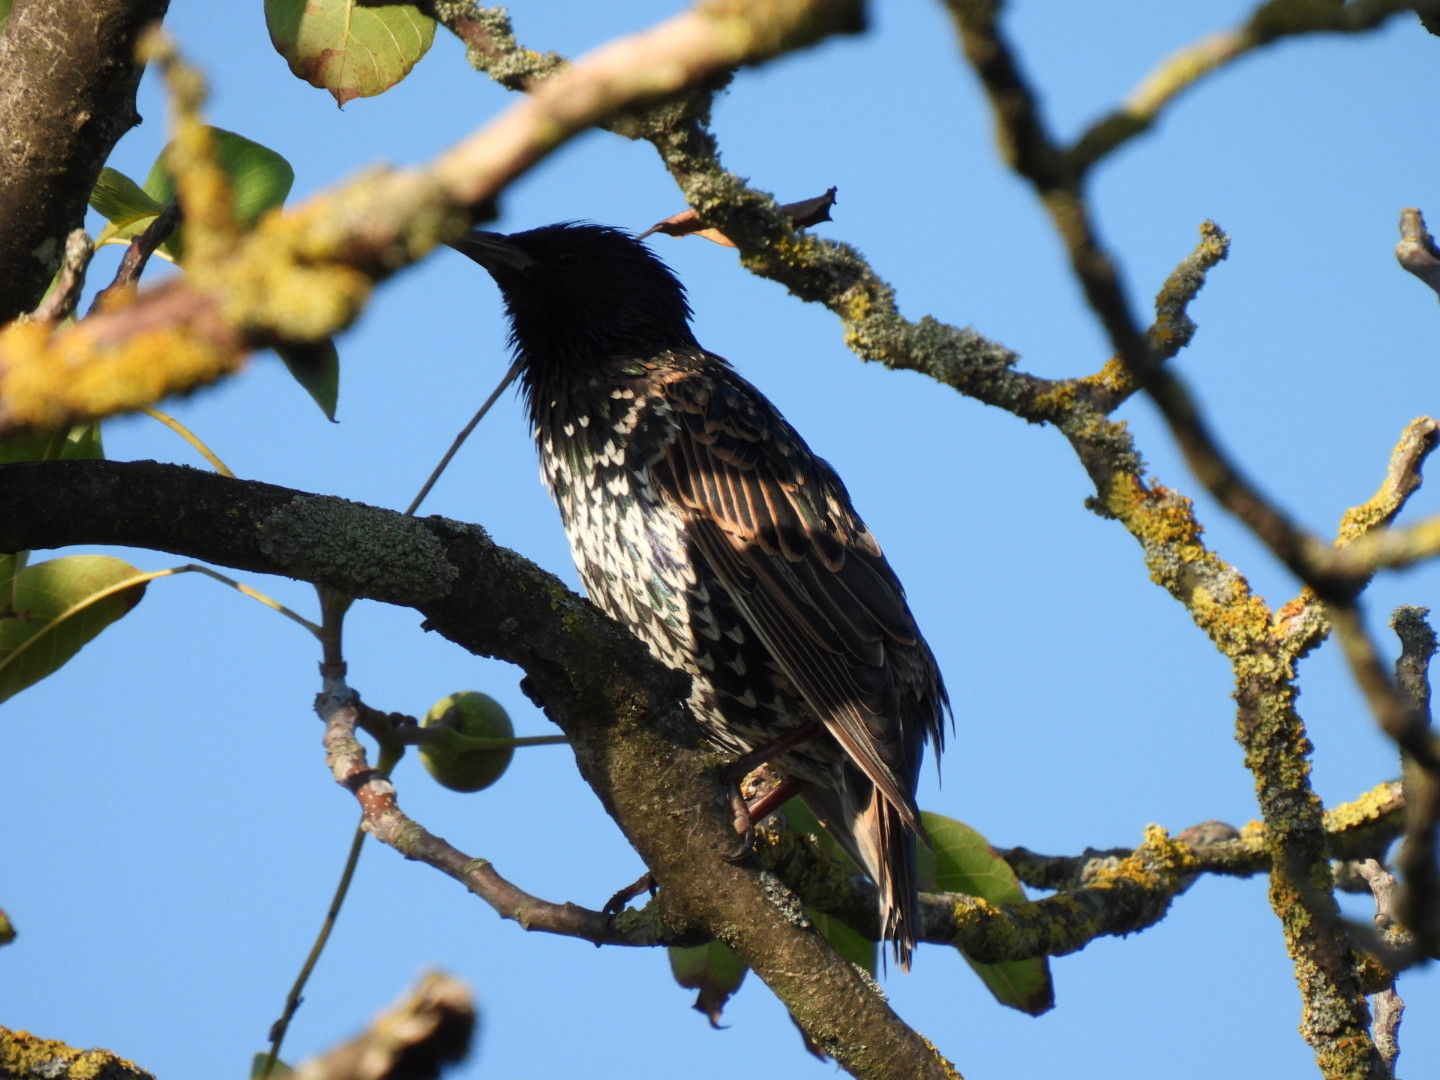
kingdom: Animalia
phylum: Chordata
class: Aves
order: Passeriformes
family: Sturnidae
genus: Sturnus
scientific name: Sturnus vulgaris
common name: Common starling
